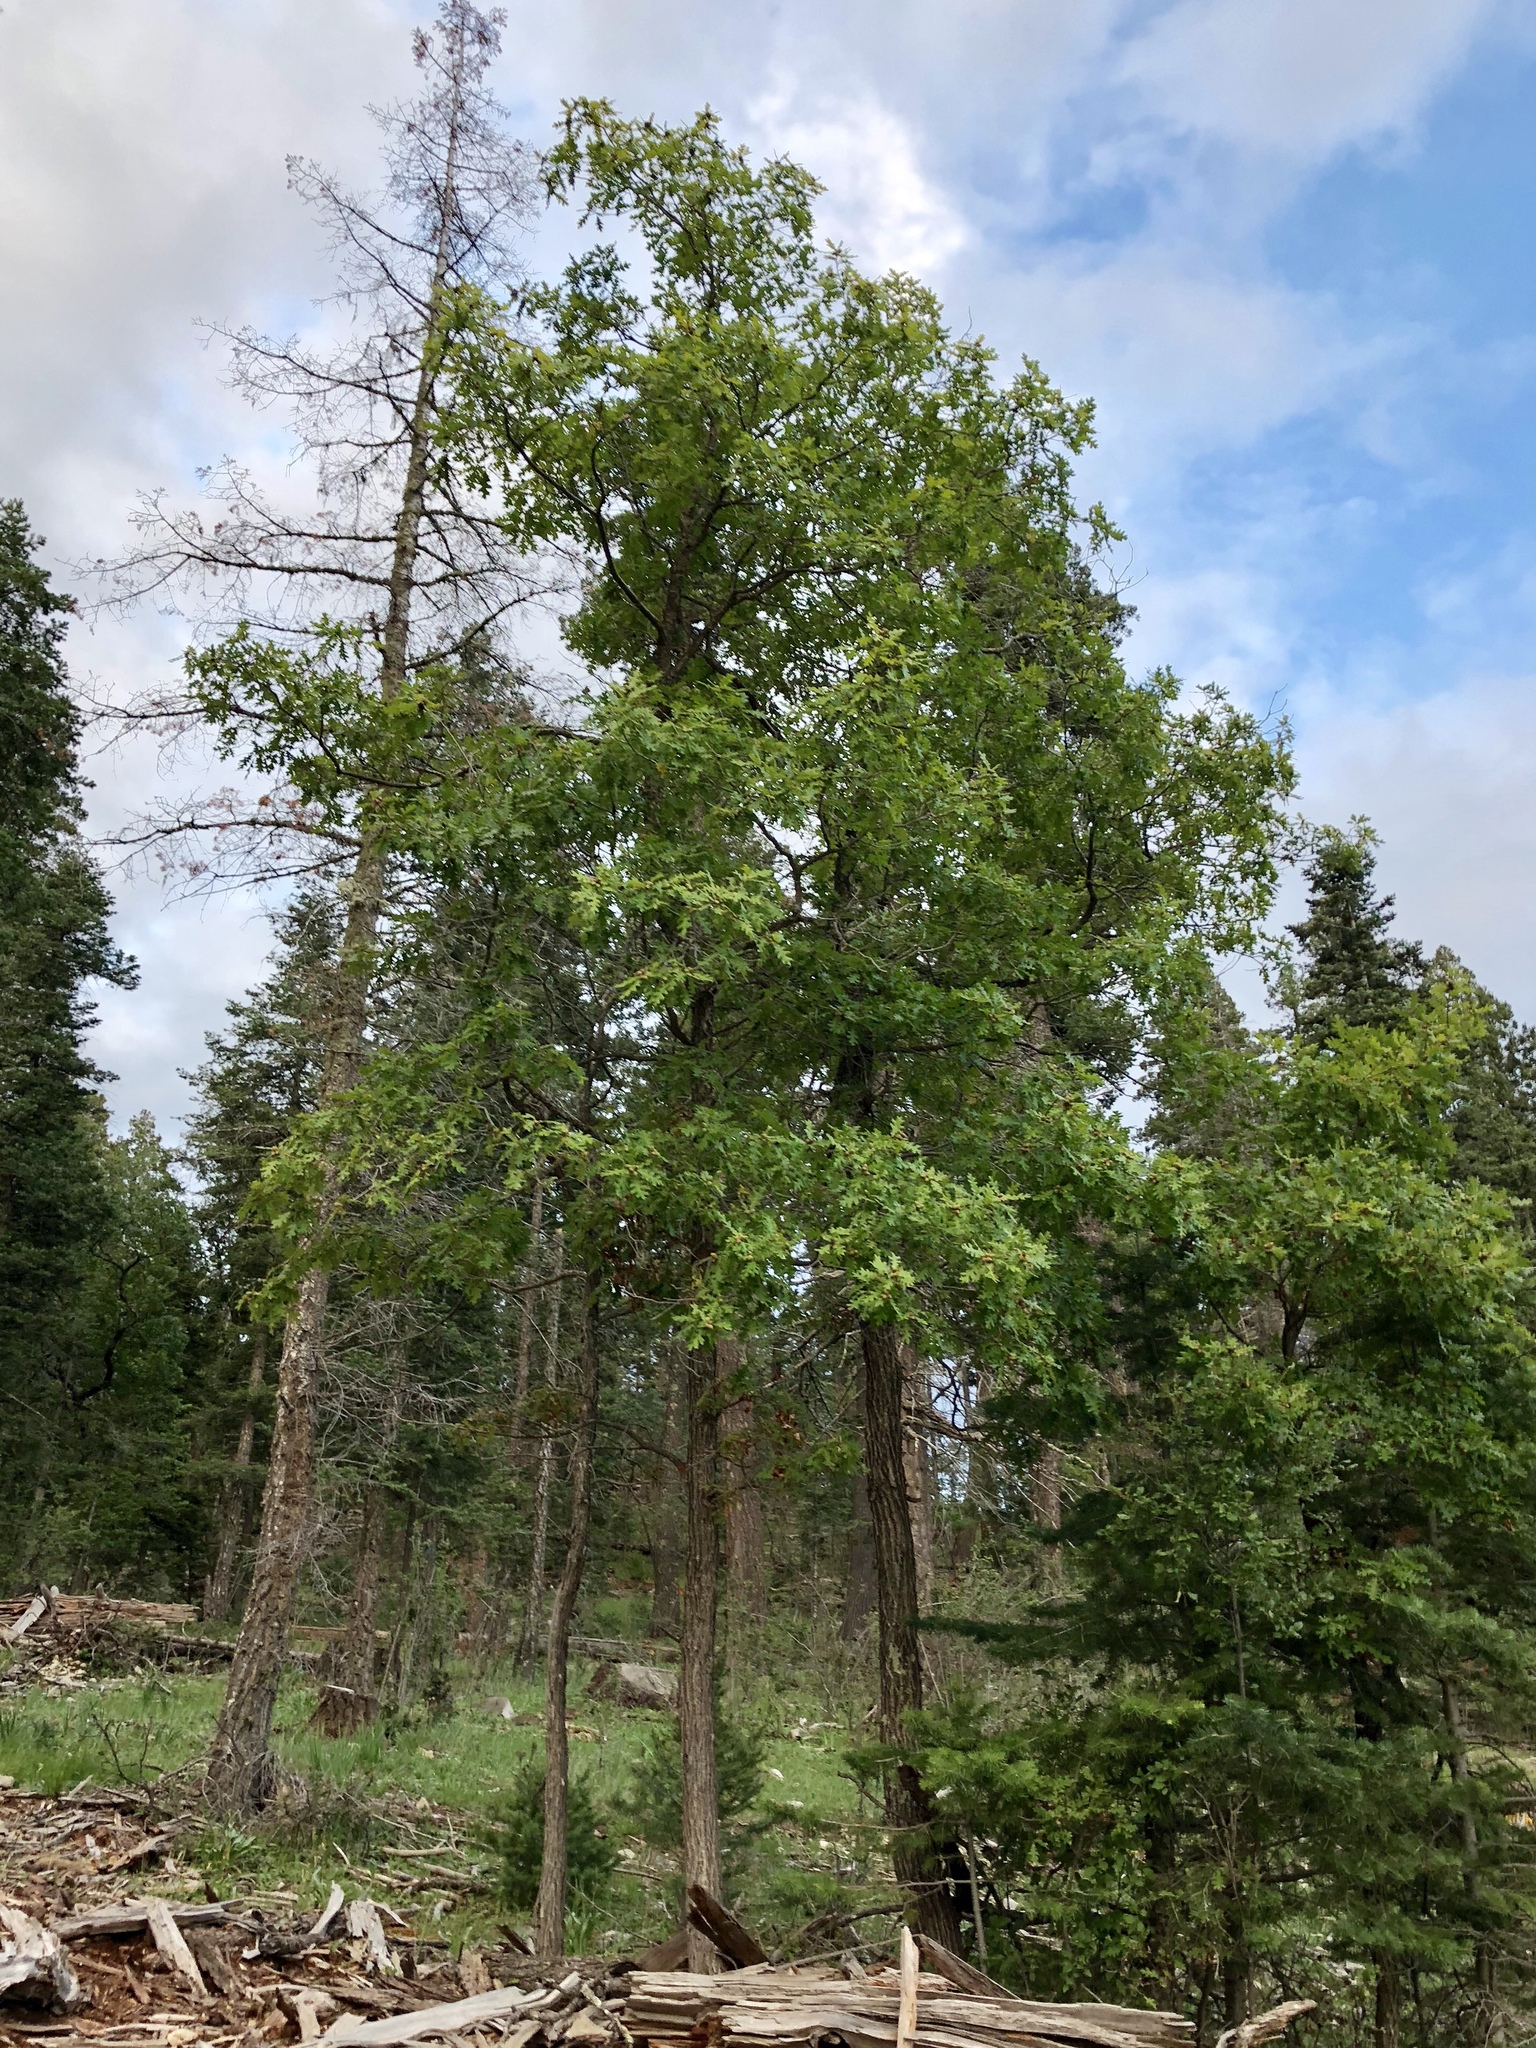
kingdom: Plantae
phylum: Tracheophyta
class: Magnoliopsida
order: Fagales
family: Fagaceae
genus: Quercus
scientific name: Quercus gambelii
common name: Gambel oak
